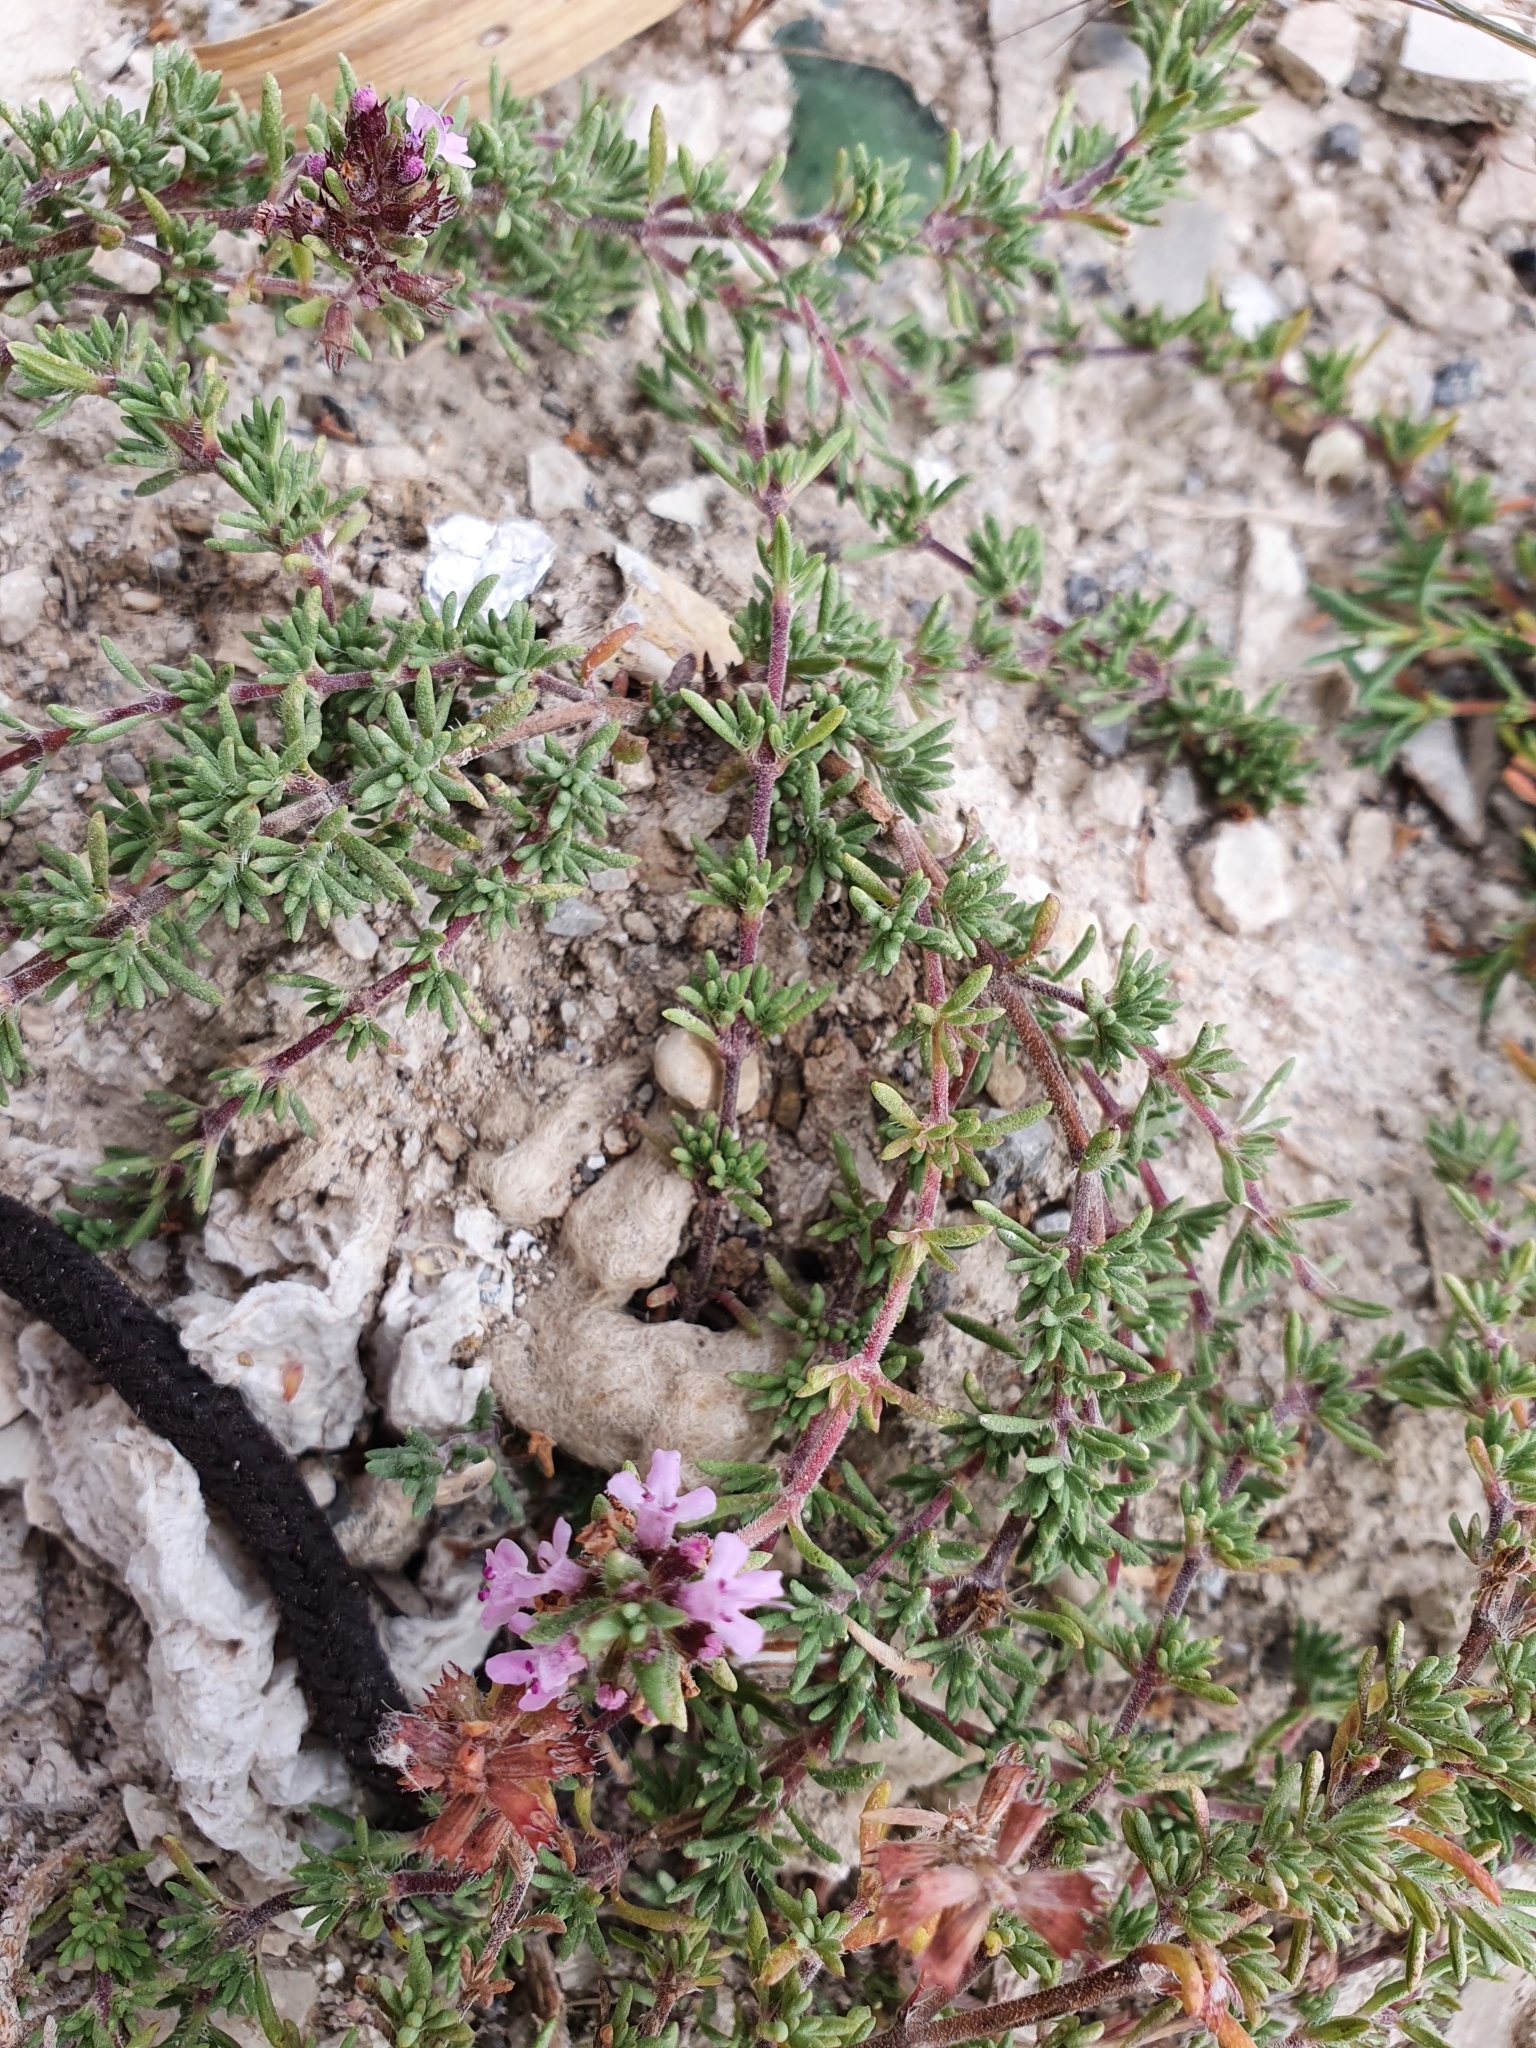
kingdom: Plantae
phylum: Tracheophyta
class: Magnoliopsida
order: Lamiales
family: Lamiaceae
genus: Thymus
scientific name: Thymus willdenowii
